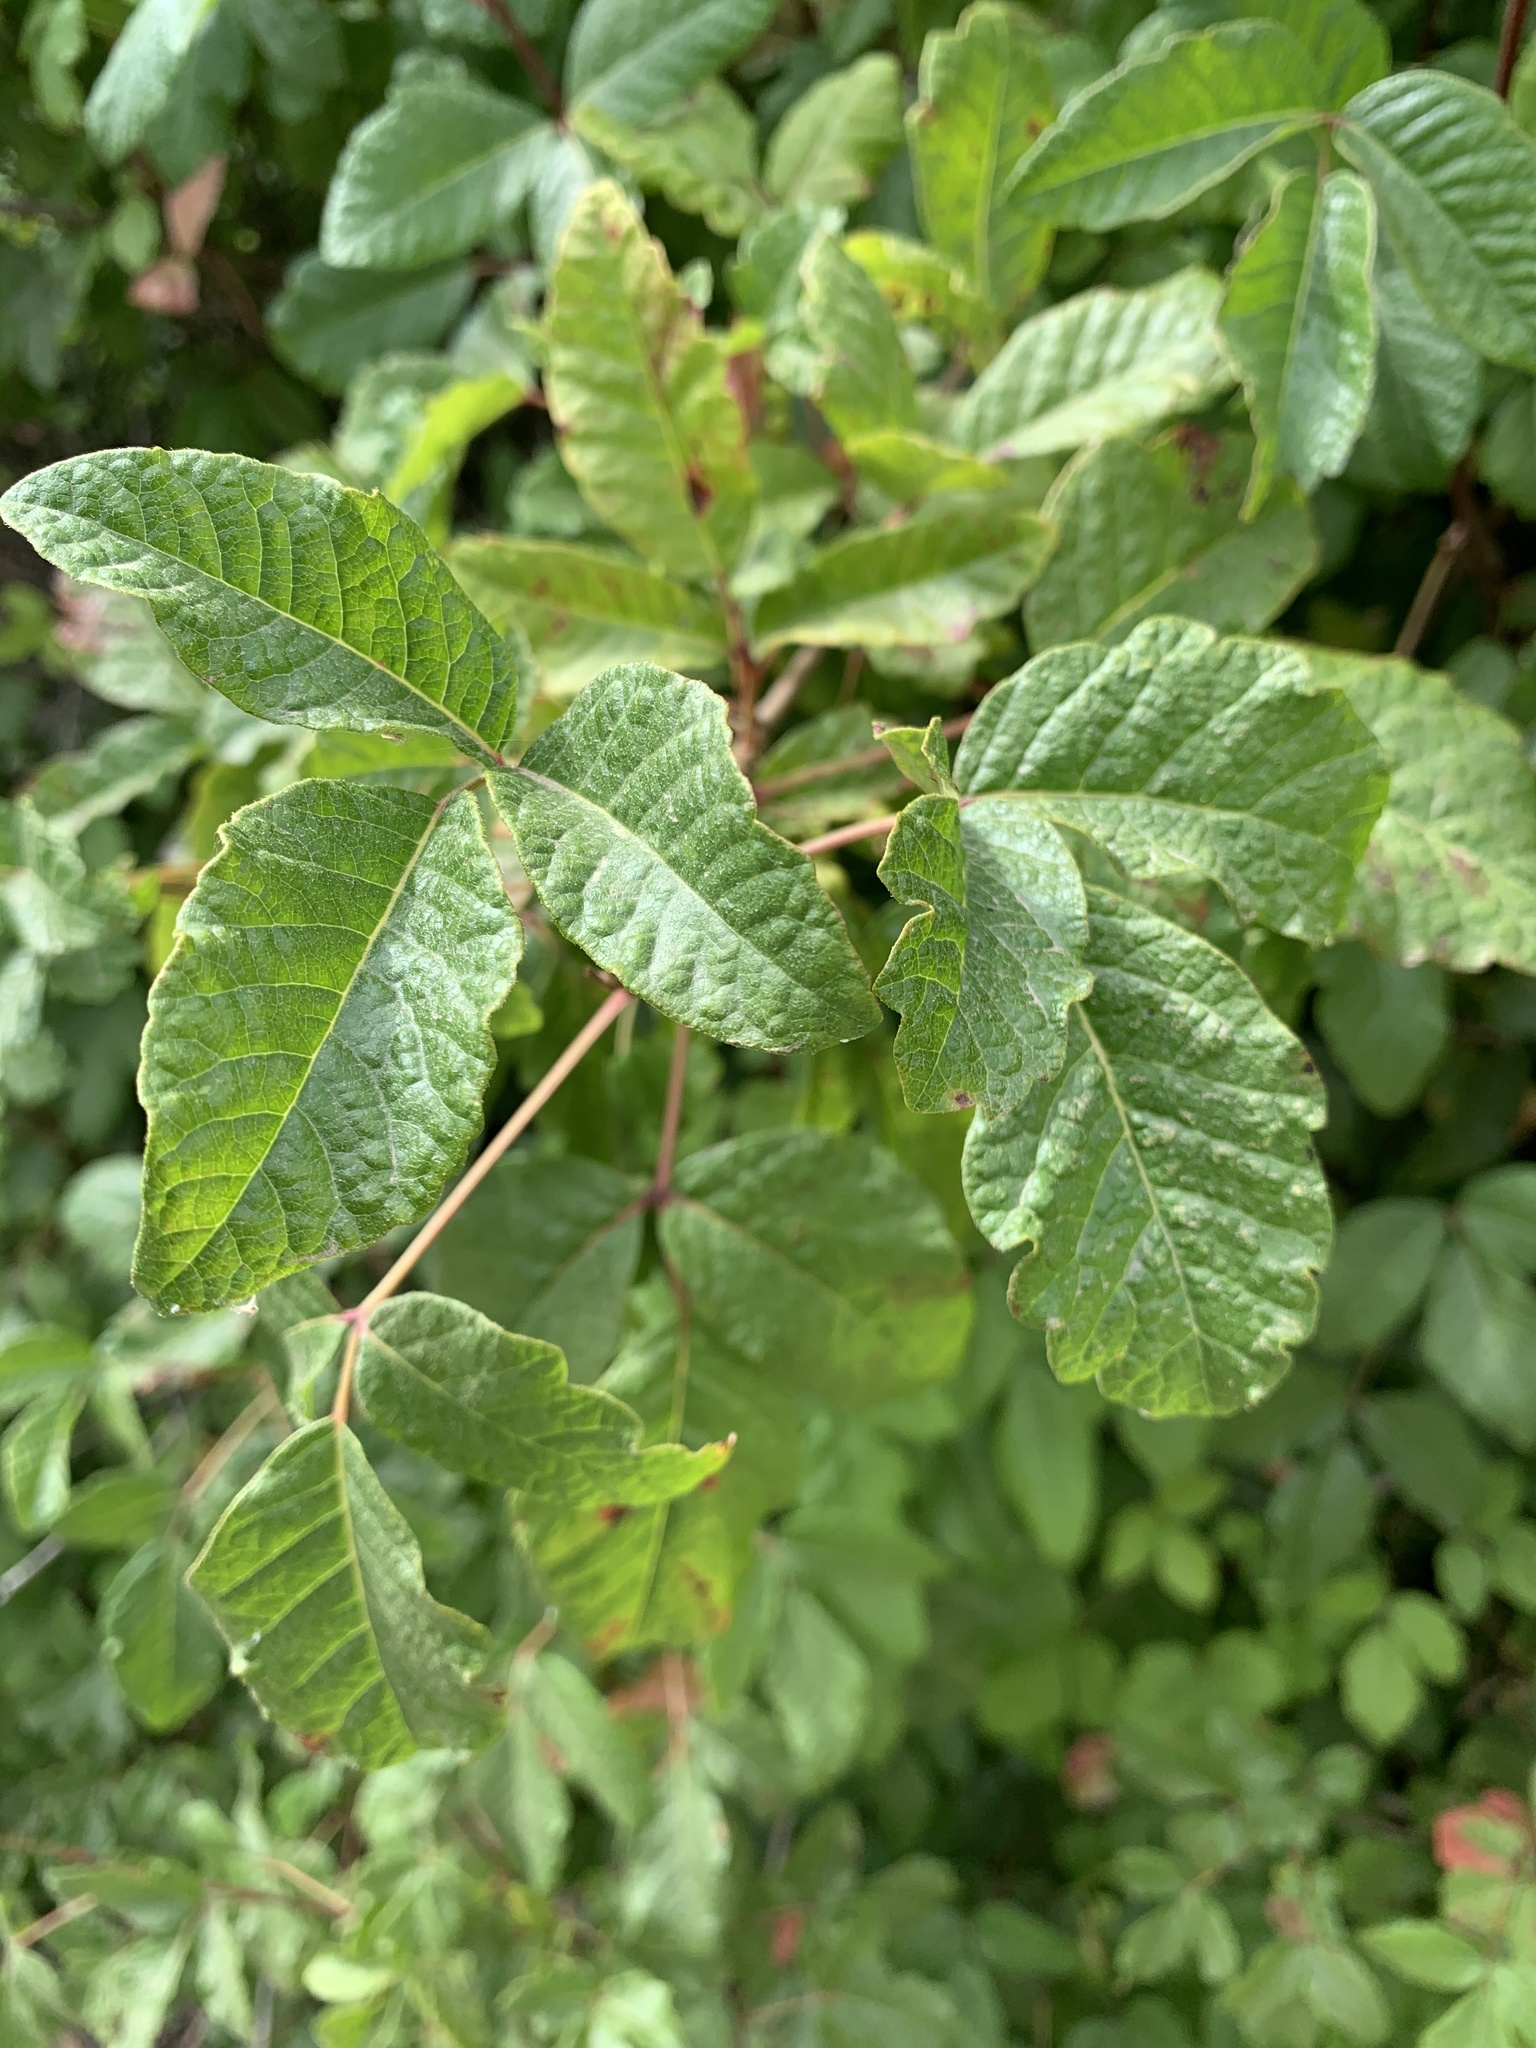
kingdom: Plantae
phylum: Tracheophyta
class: Magnoliopsida
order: Sapindales
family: Anacardiaceae
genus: Toxicodendron
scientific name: Toxicodendron diversilobum
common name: Pacific poison-oak
